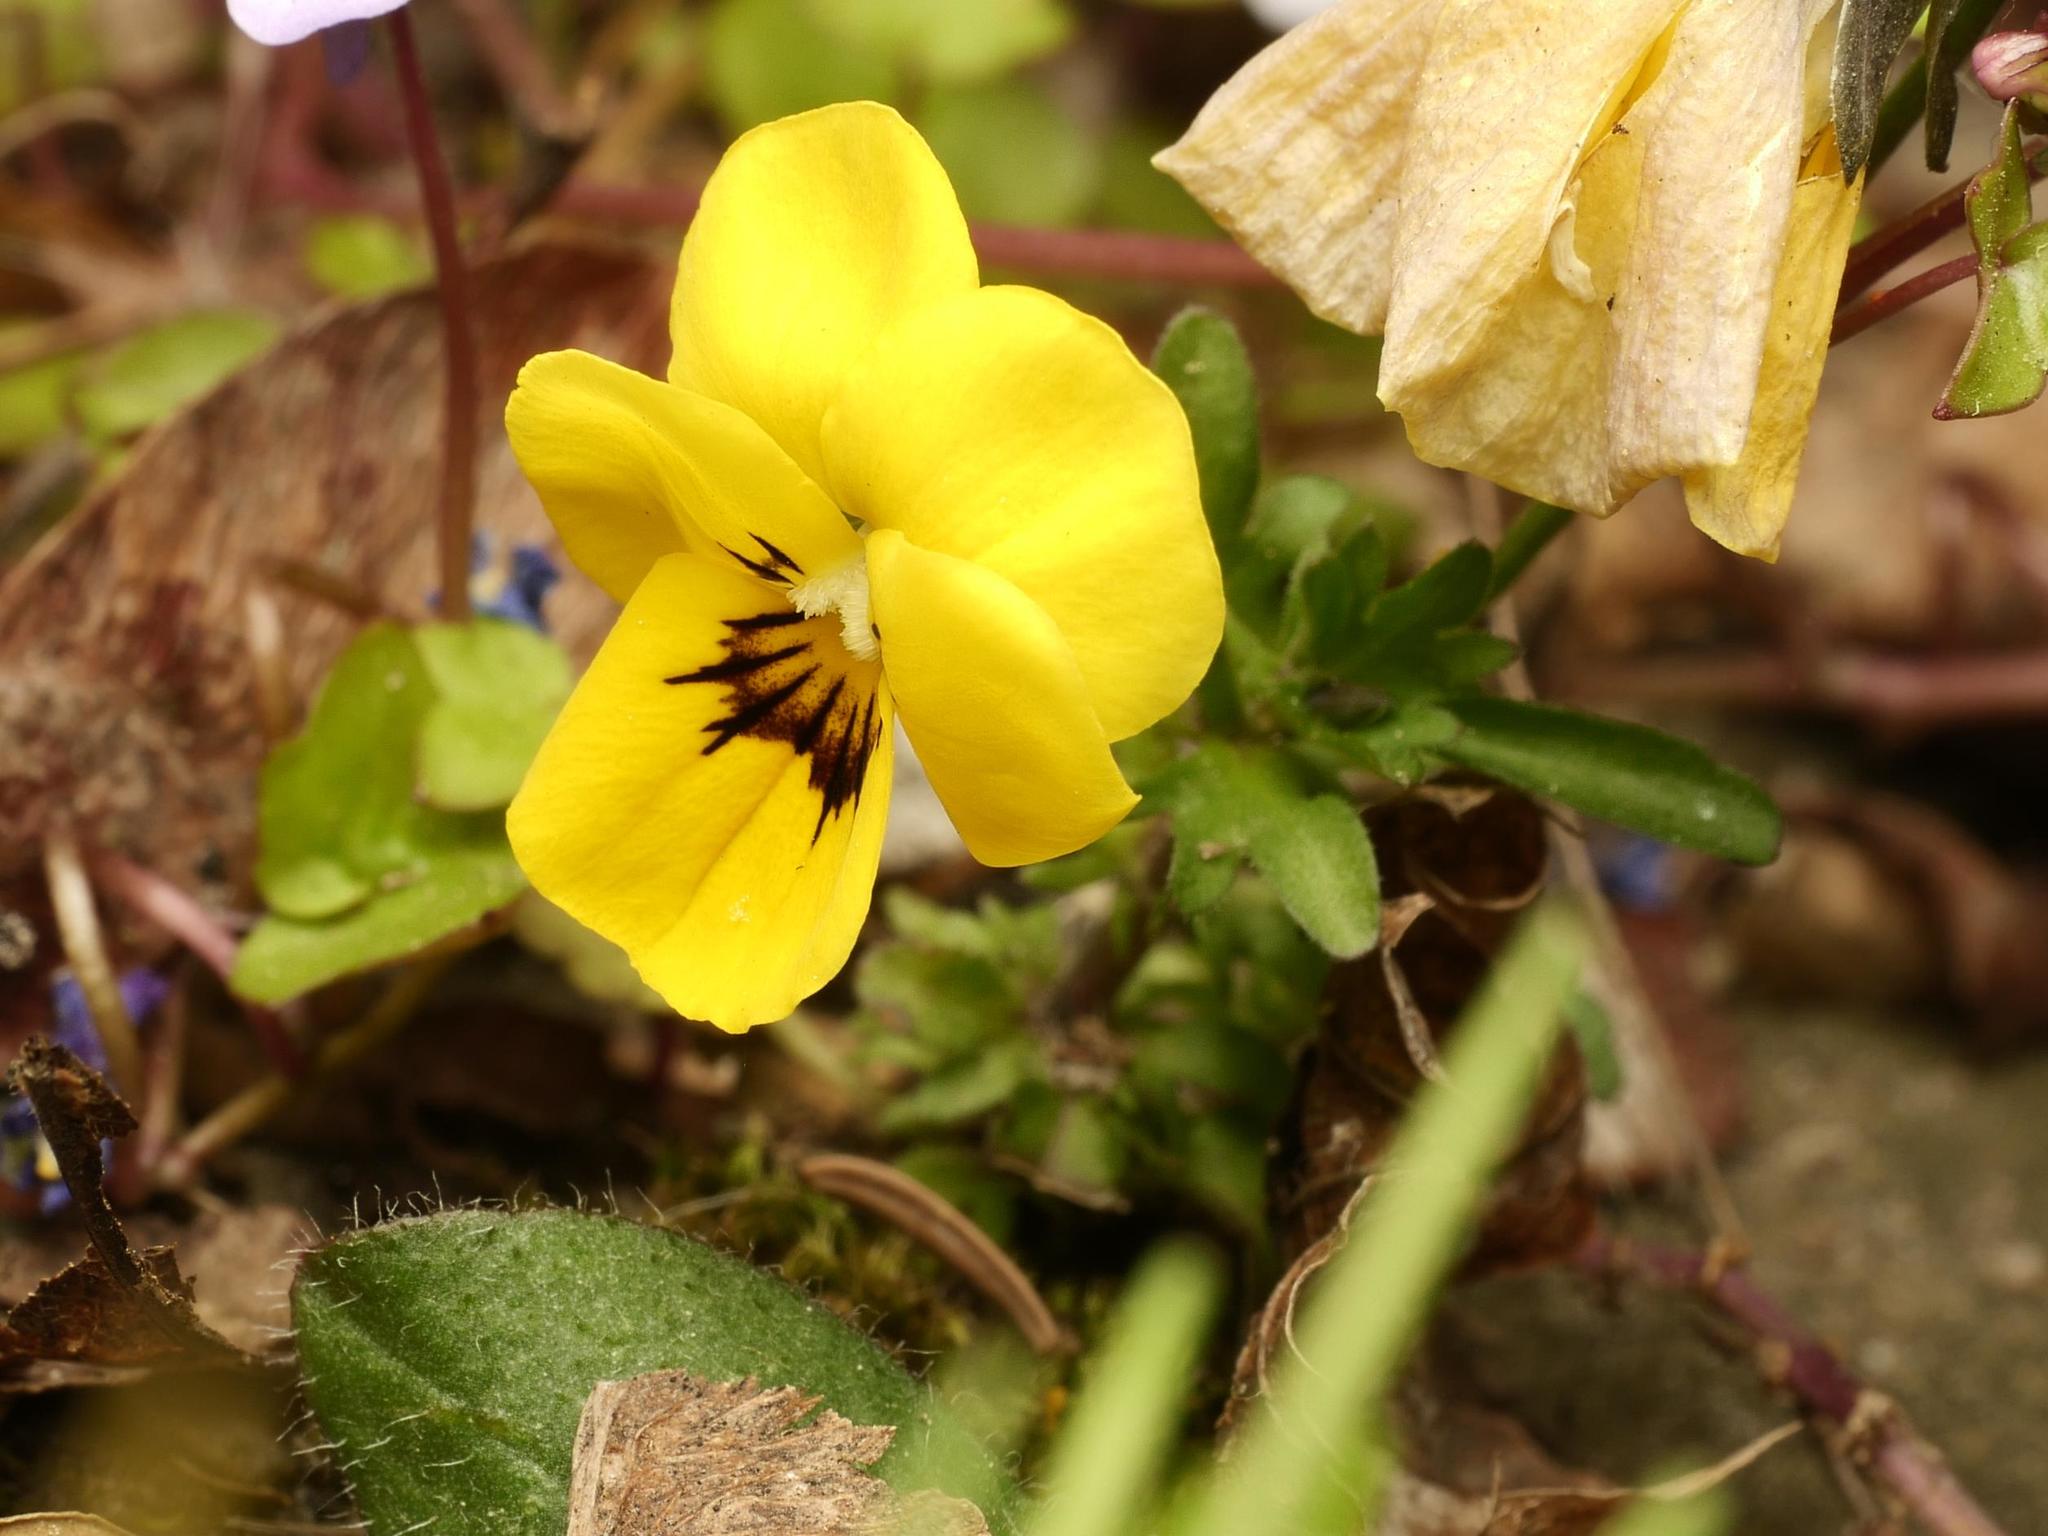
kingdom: Plantae
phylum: Tracheophyta
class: Magnoliopsida
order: Malpighiales
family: Violaceae
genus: Viola
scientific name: Viola wittrockiana
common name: Garden pansy
